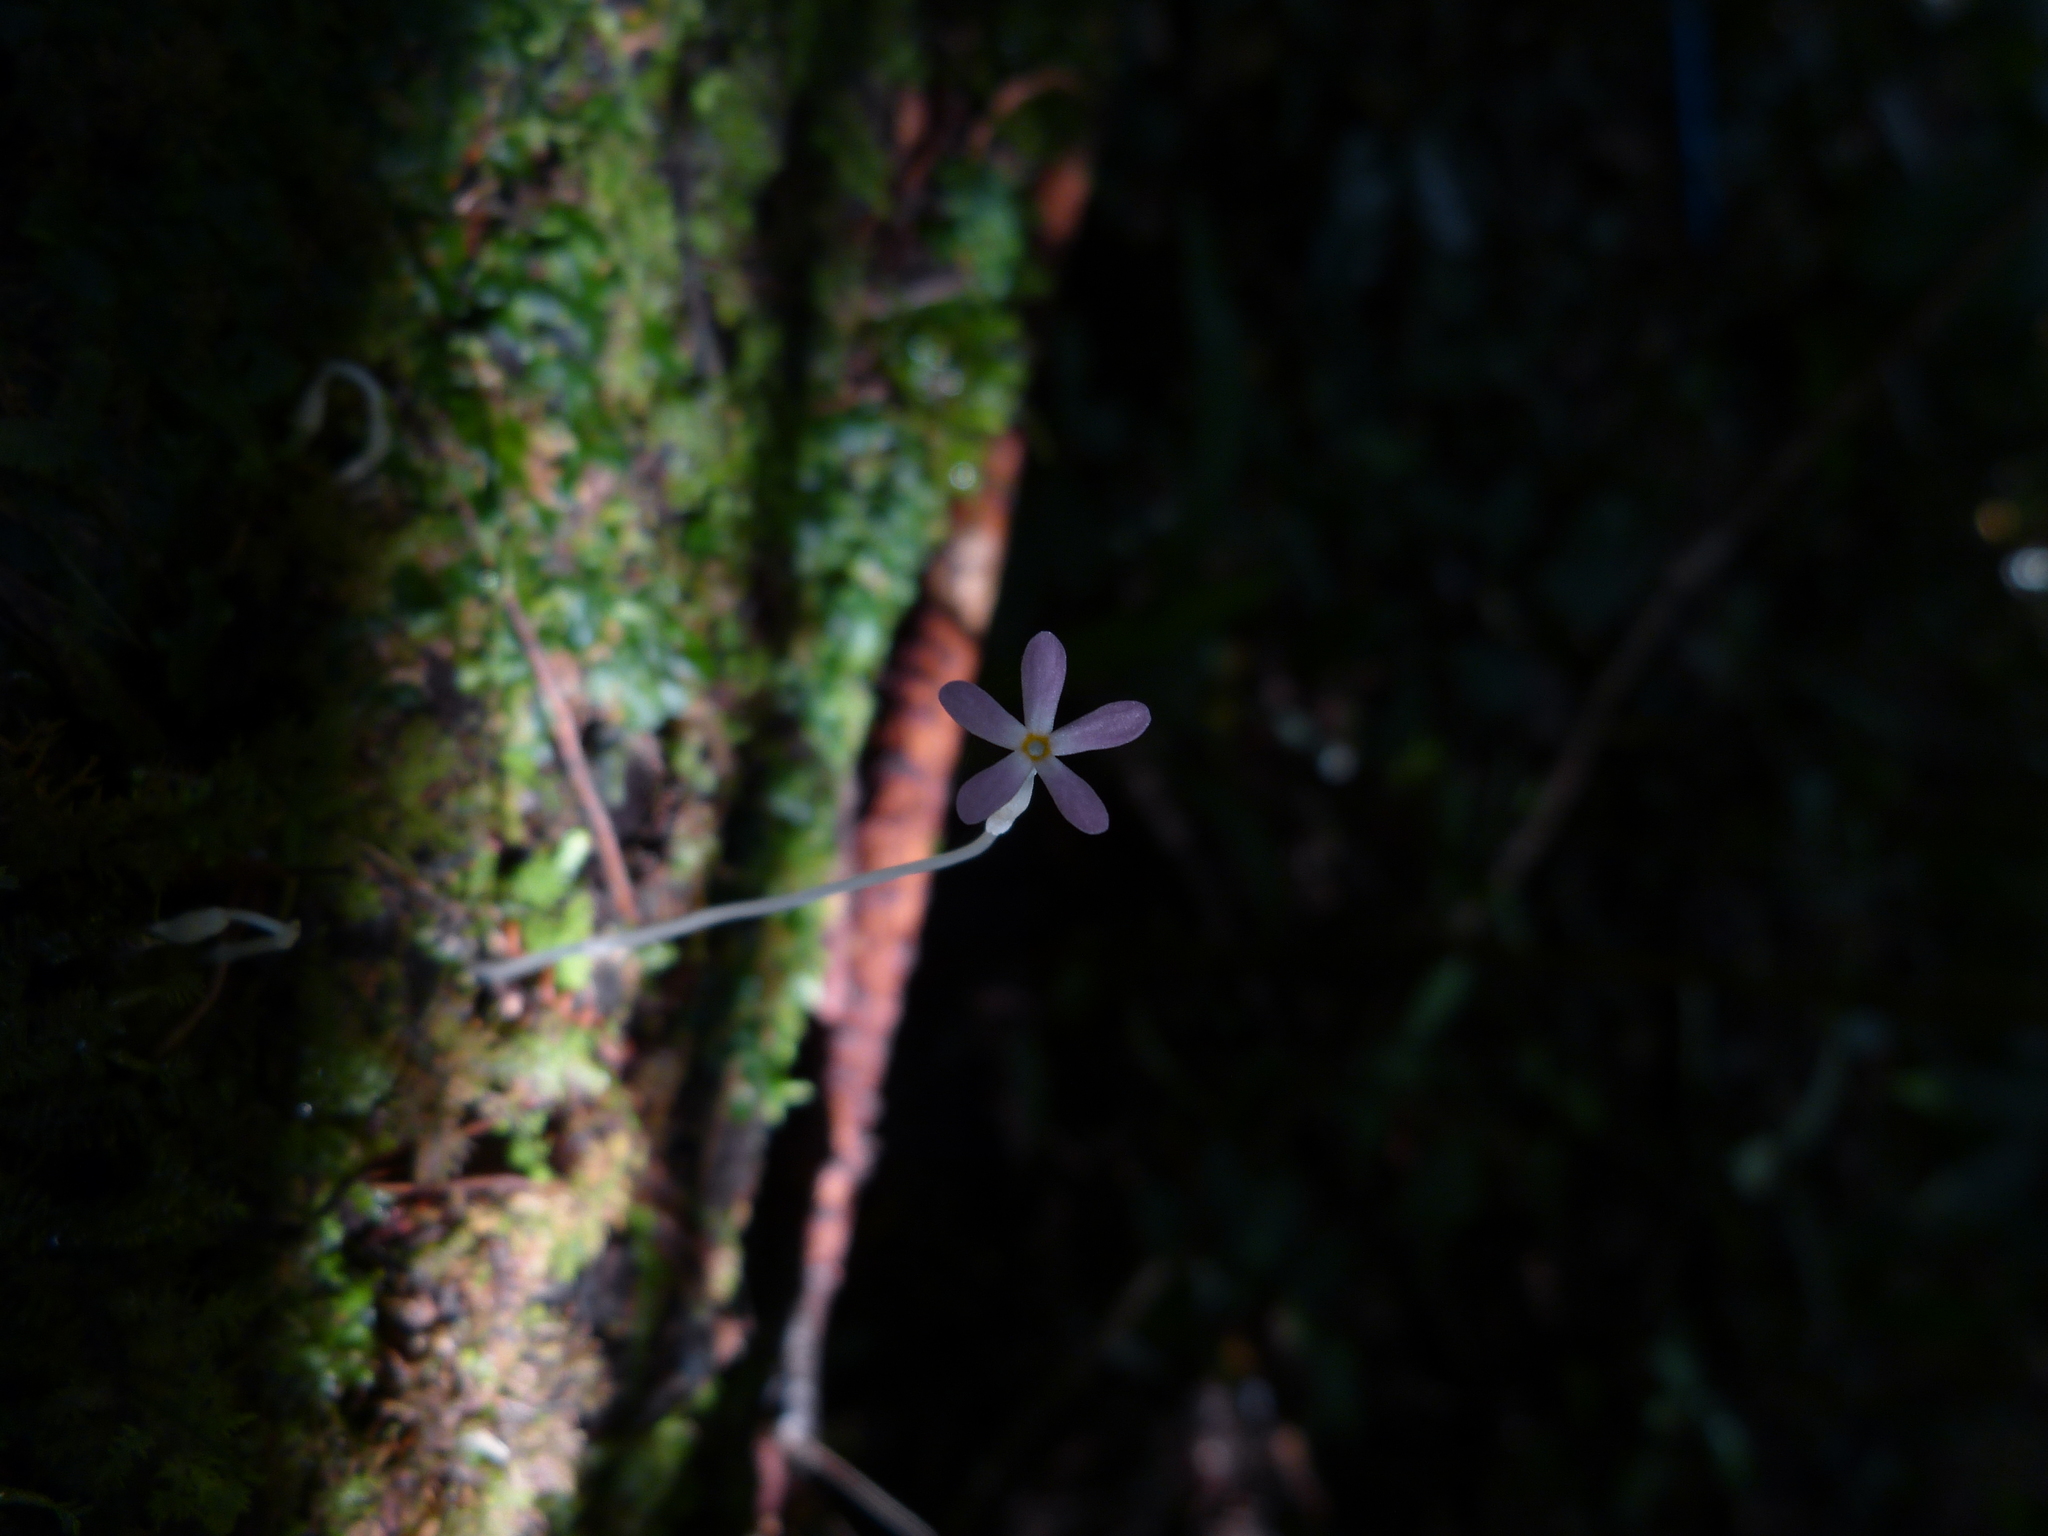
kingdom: Plantae
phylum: Tracheophyta
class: Magnoliopsida
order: Gentianales
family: Gentianaceae
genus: Voyria
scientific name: Voyria tenella
